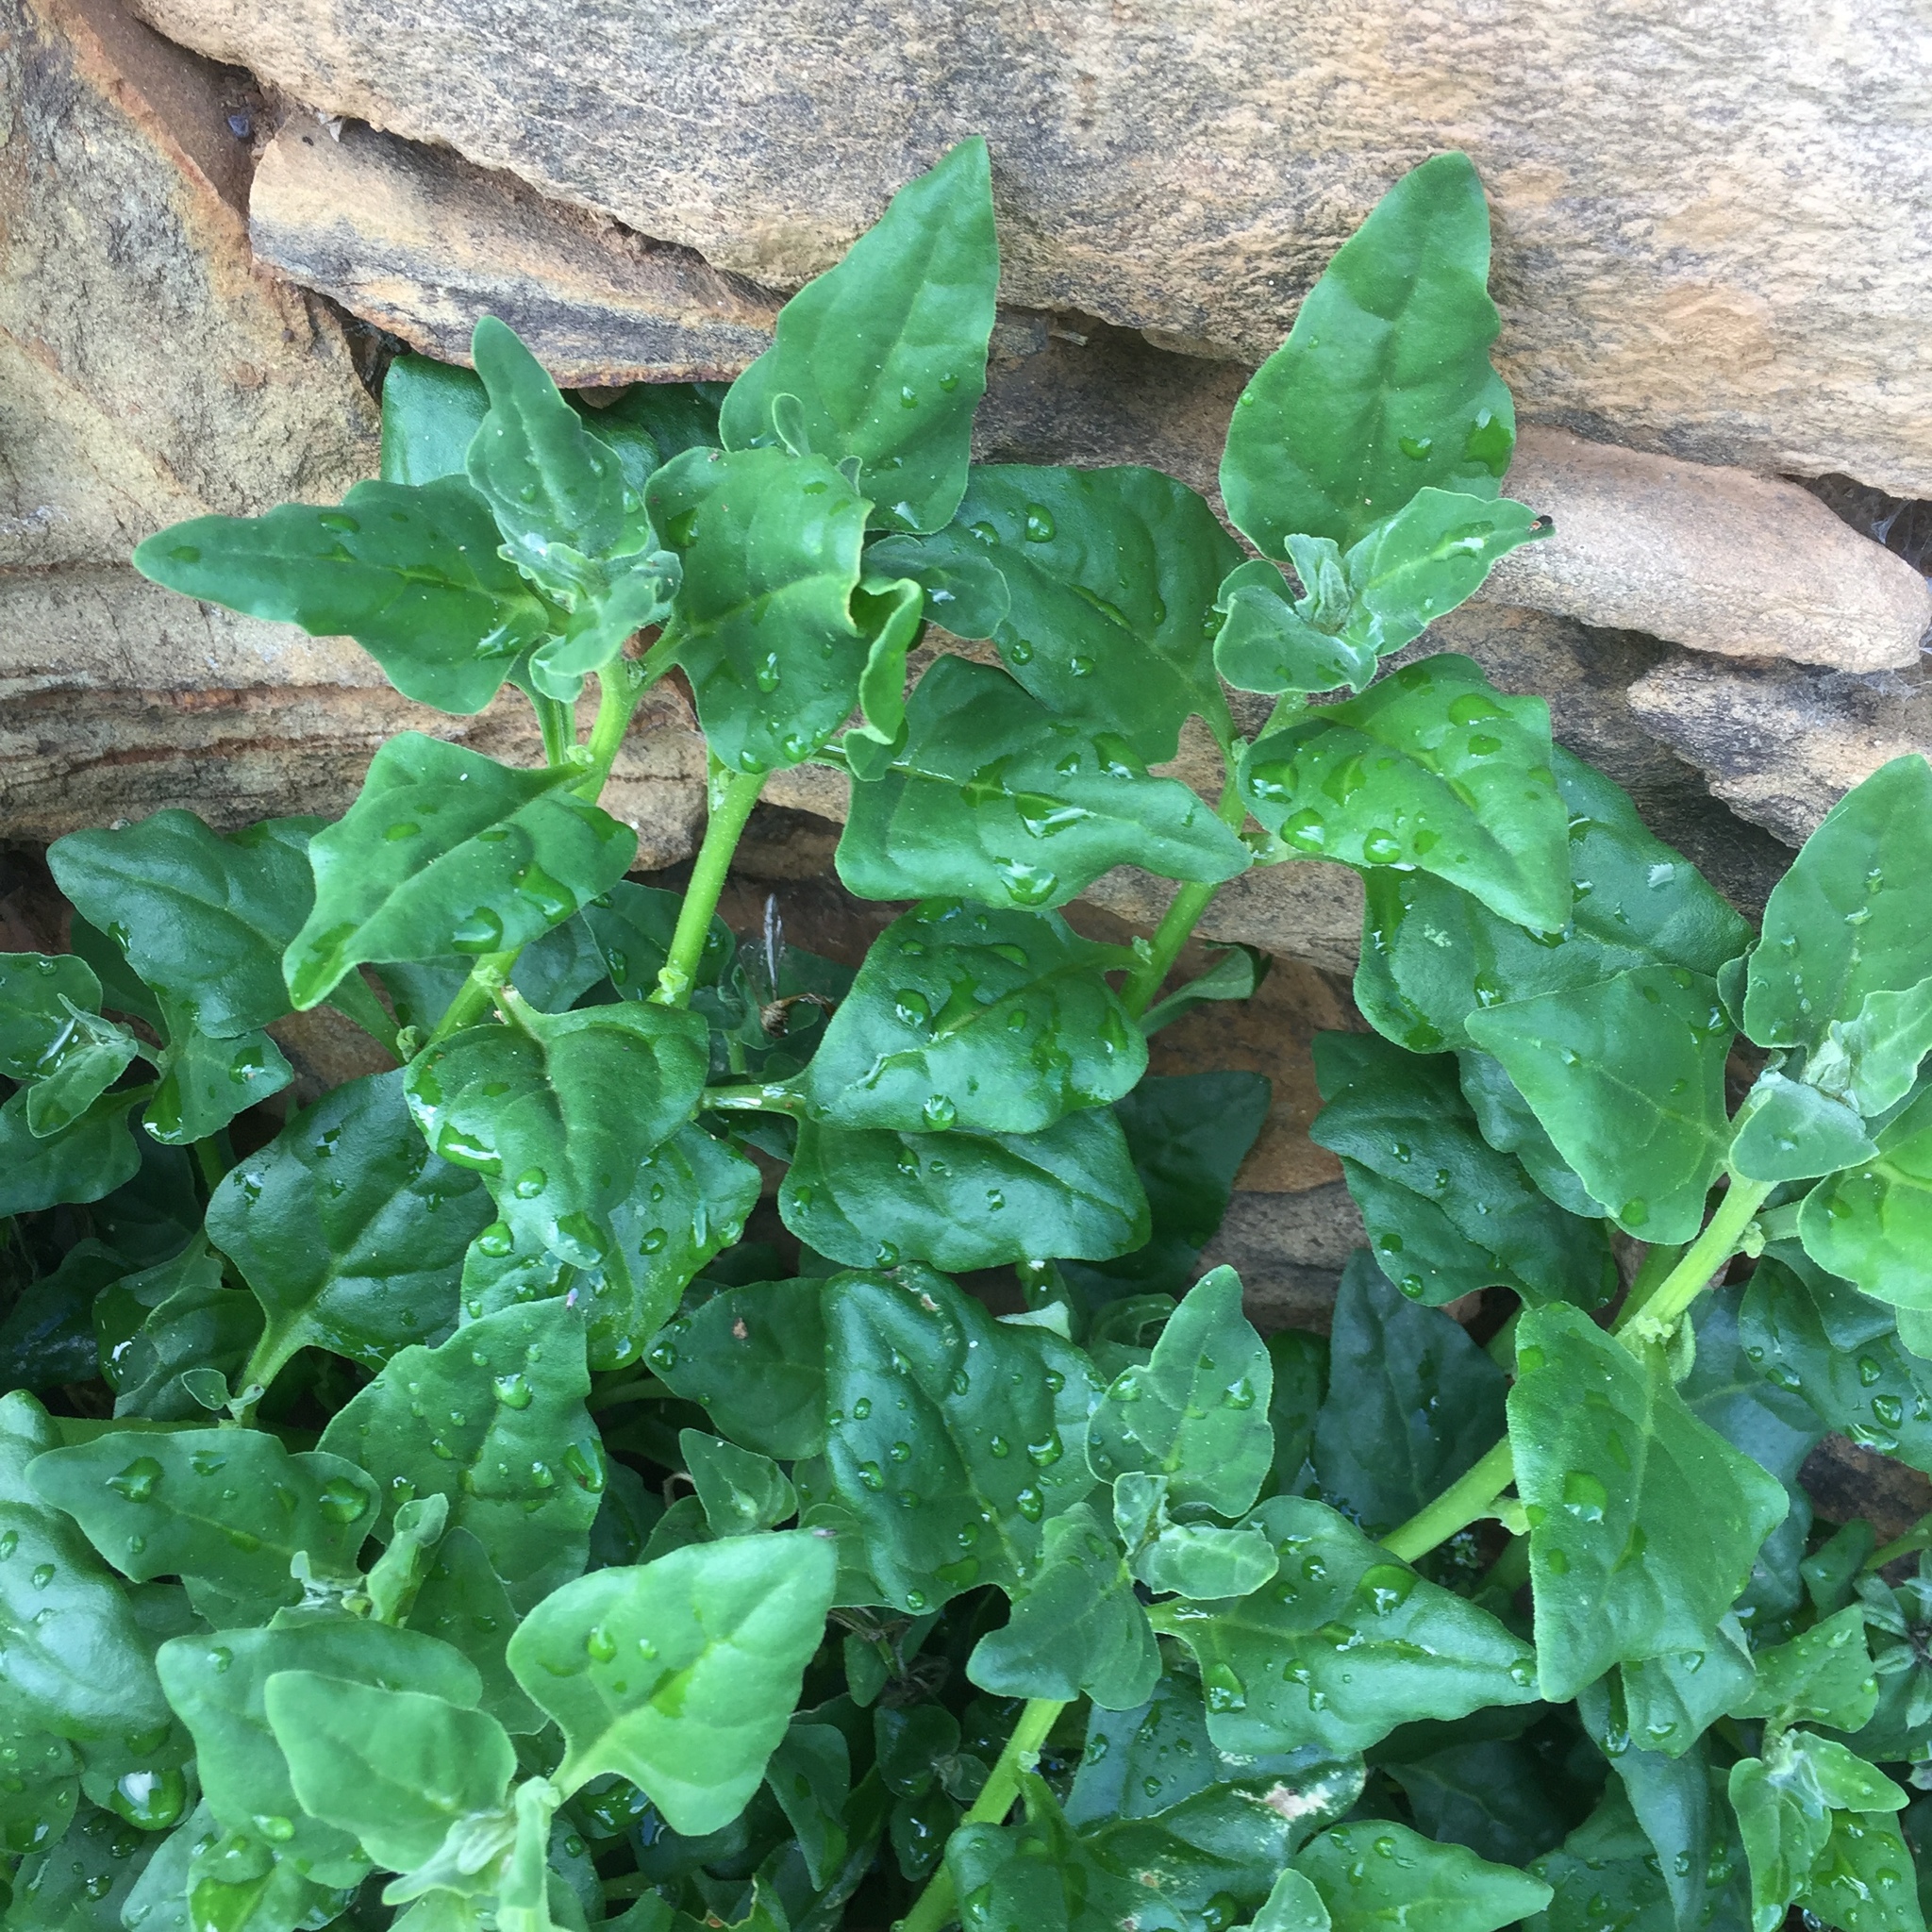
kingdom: Plantae
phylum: Tracheophyta
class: Magnoliopsida
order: Caryophyllales
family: Aizoaceae
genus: Tetragonia
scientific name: Tetragonia tetragonoides
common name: New zealand-spinach
